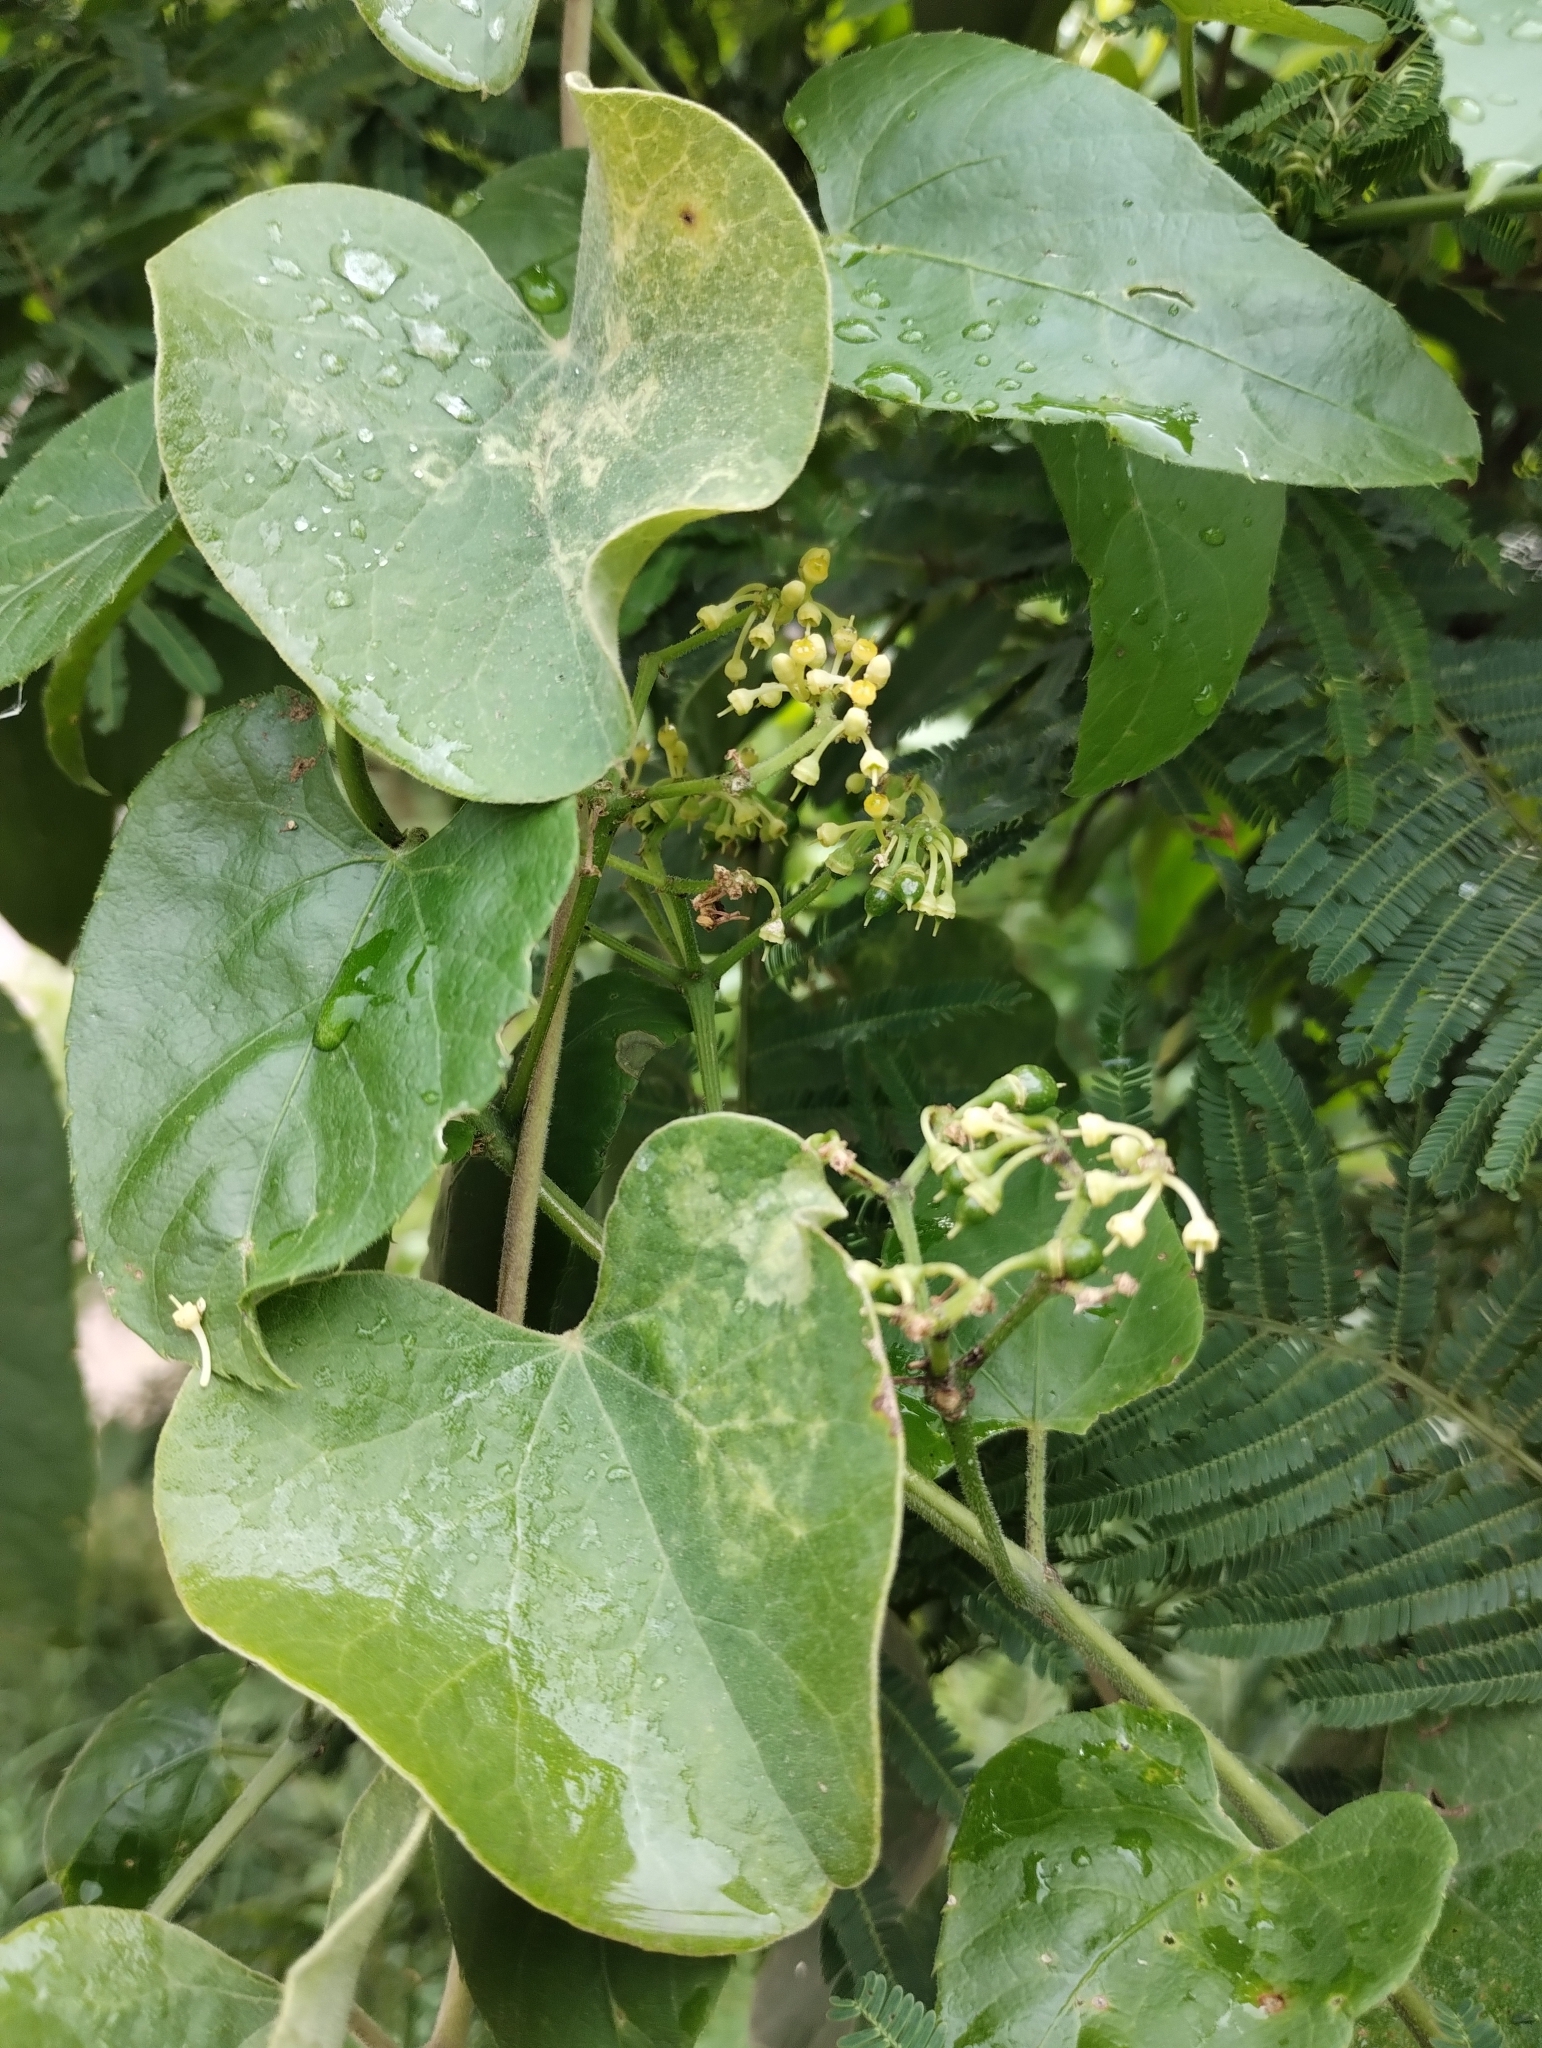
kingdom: Plantae
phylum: Tracheophyta
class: Magnoliopsida
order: Vitales
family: Vitaceae
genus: Cissus
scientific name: Cissus verticillata
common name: Princess vine
